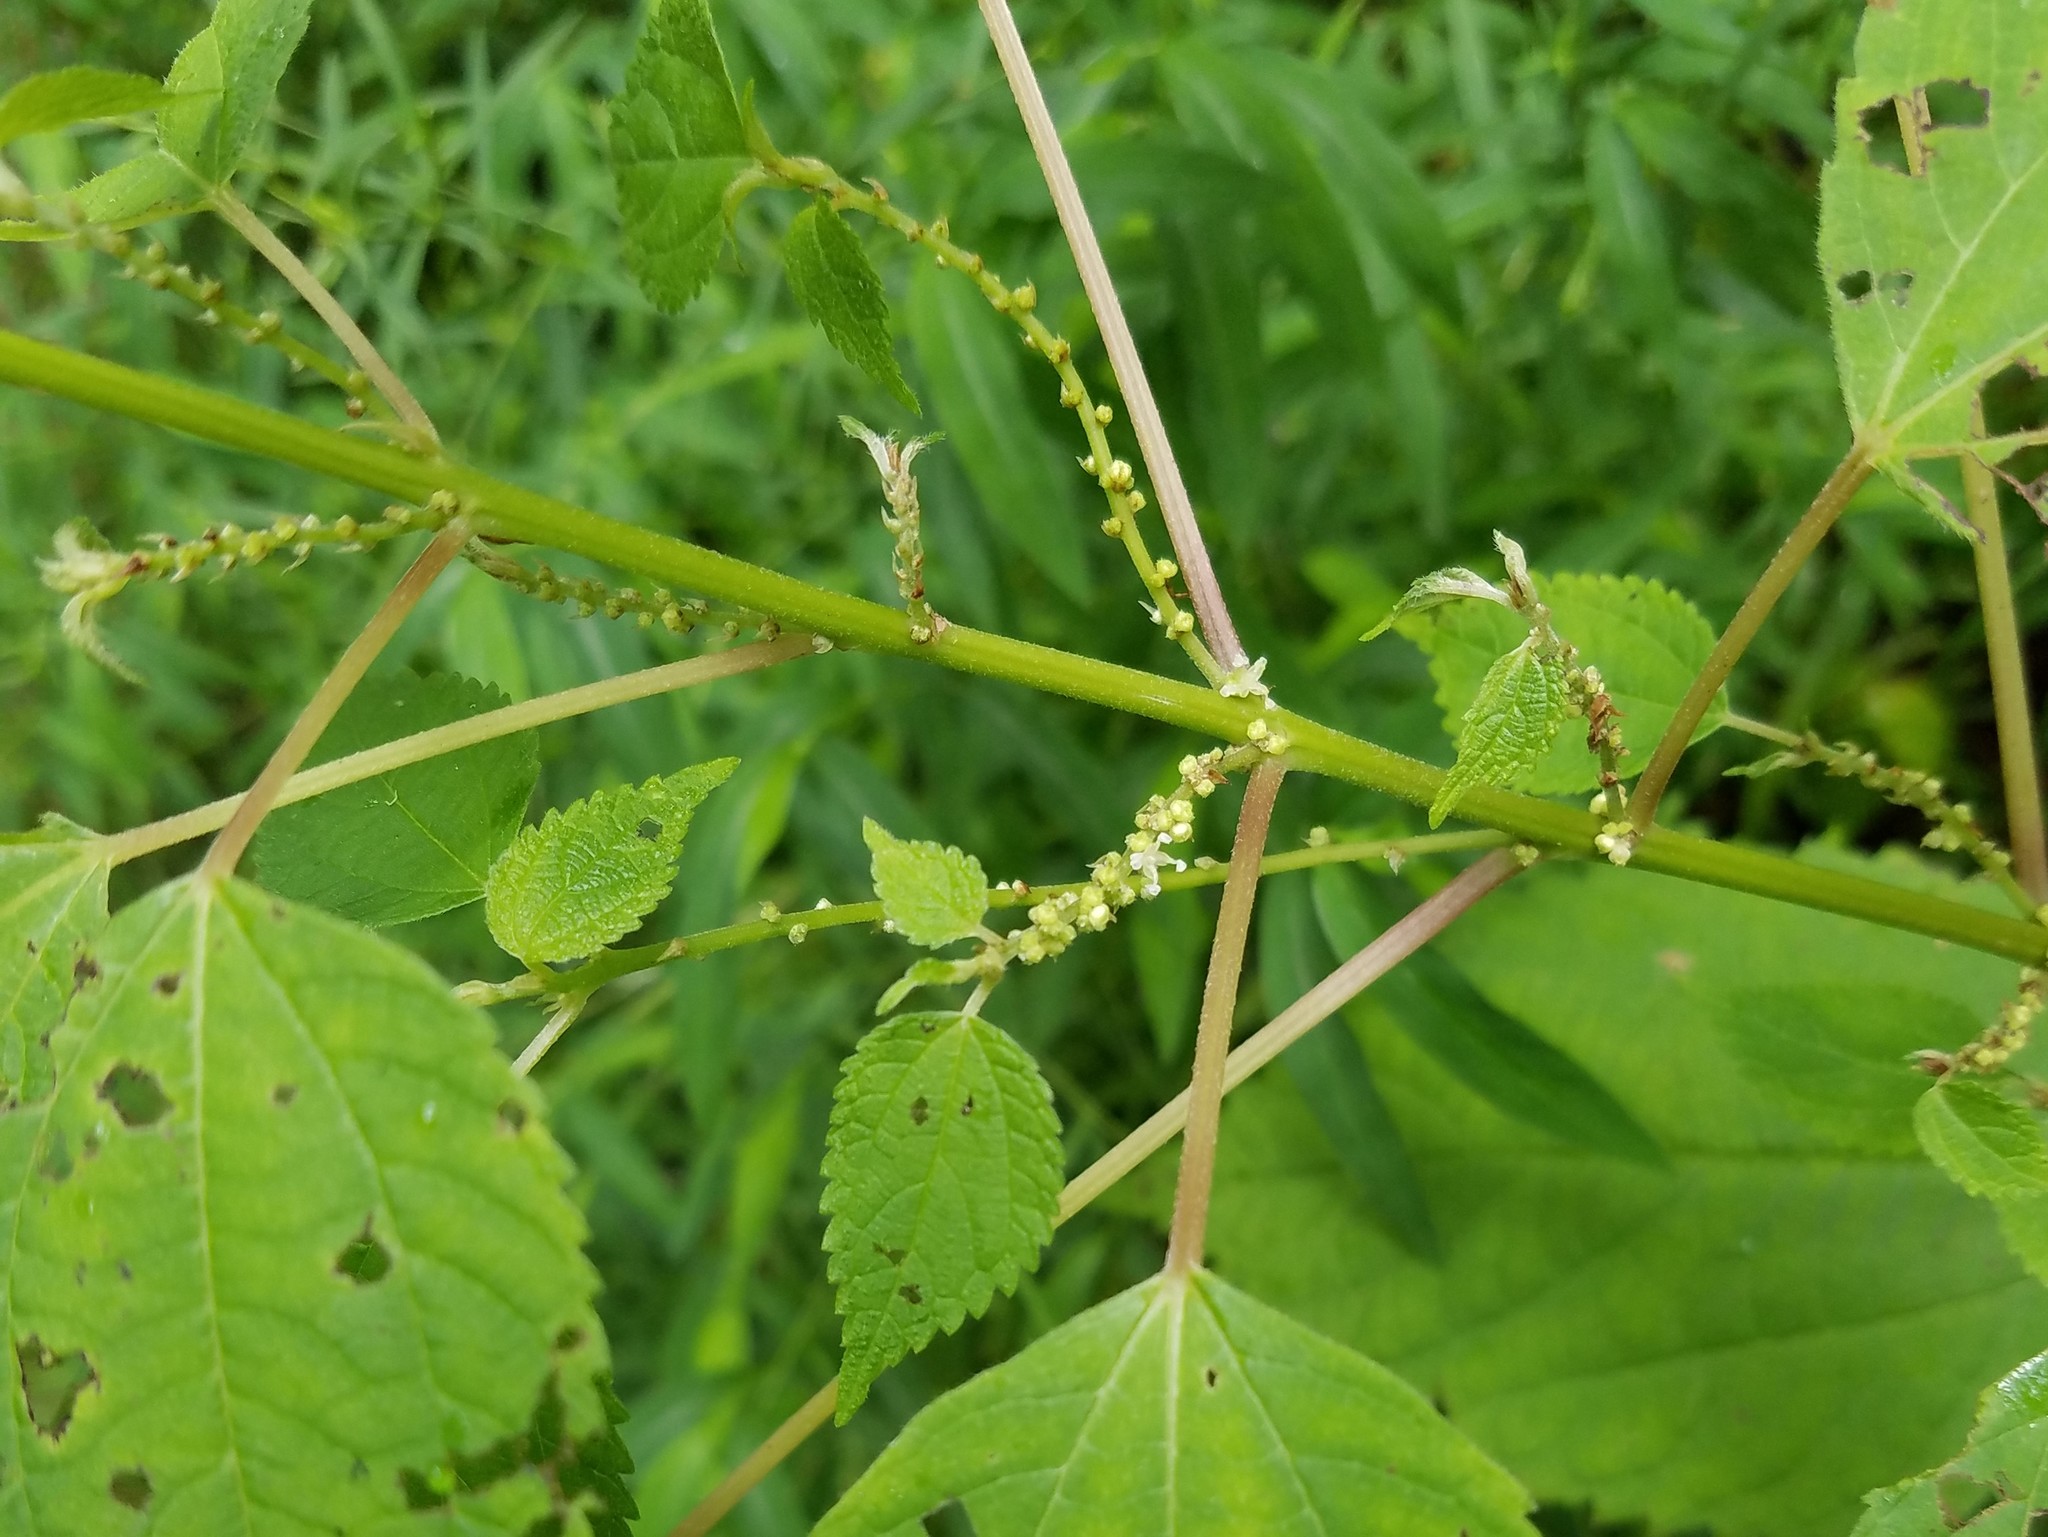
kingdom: Plantae
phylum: Tracheophyta
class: Magnoliopsida
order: Rosales
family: Urticaceae
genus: Boehmeria
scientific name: Boehmeria cylindrica
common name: Bog-hemp
